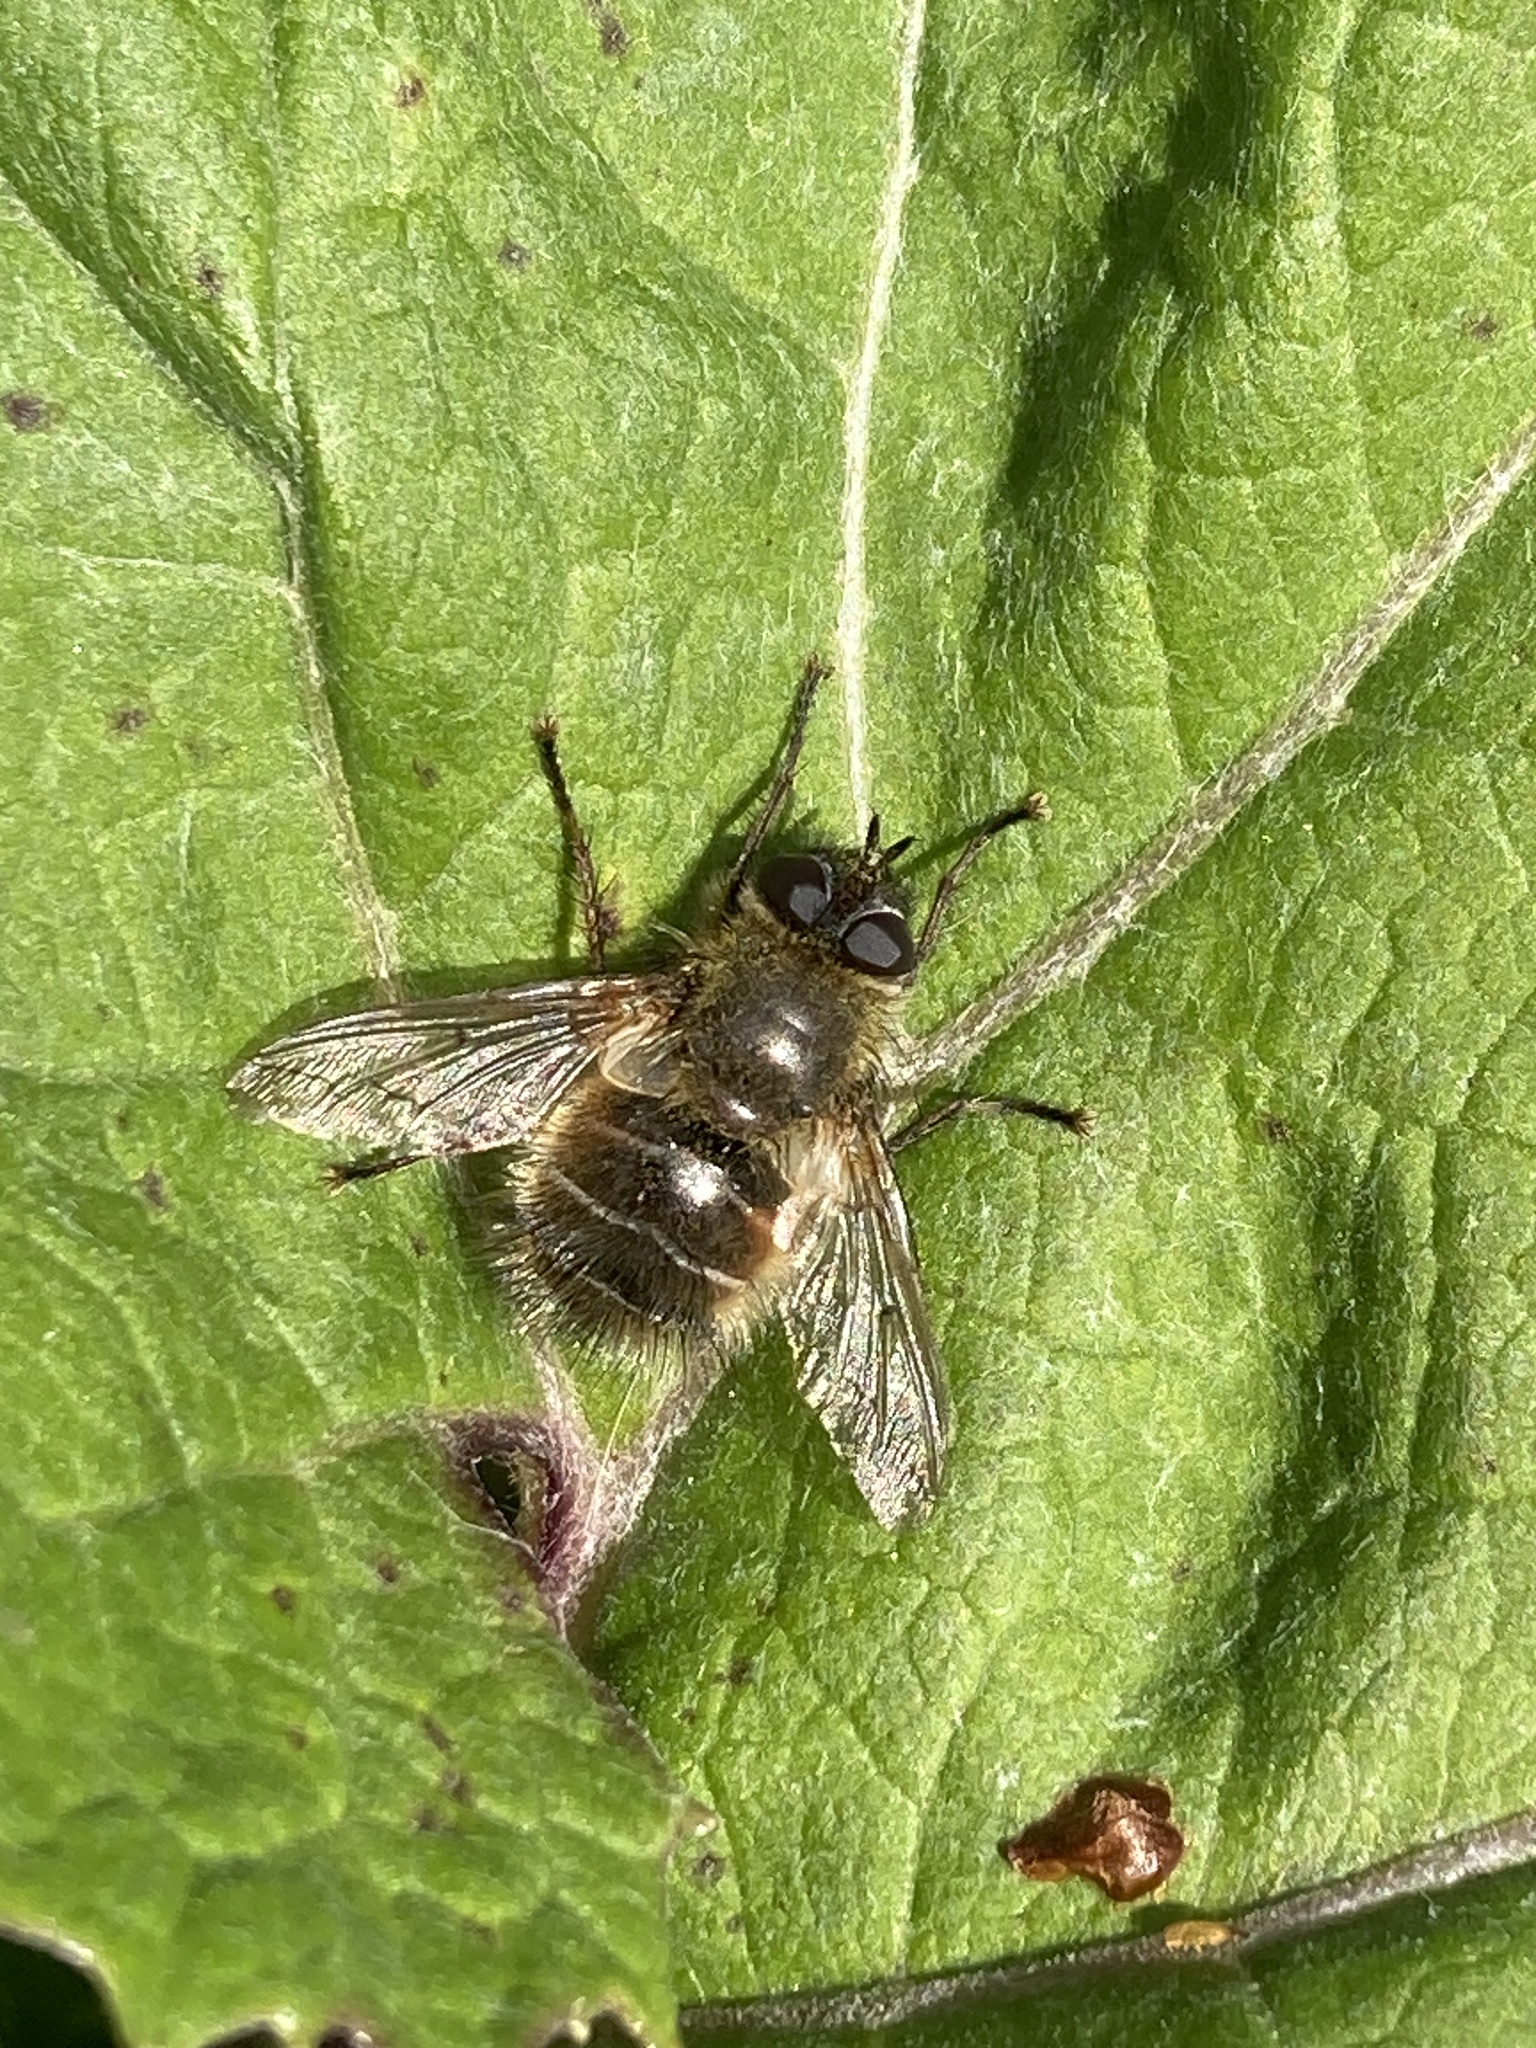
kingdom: Animalia
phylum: Arthropoda
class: Insecta
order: Diptera
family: Tachinidae
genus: Tachina
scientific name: Tachina ursina
